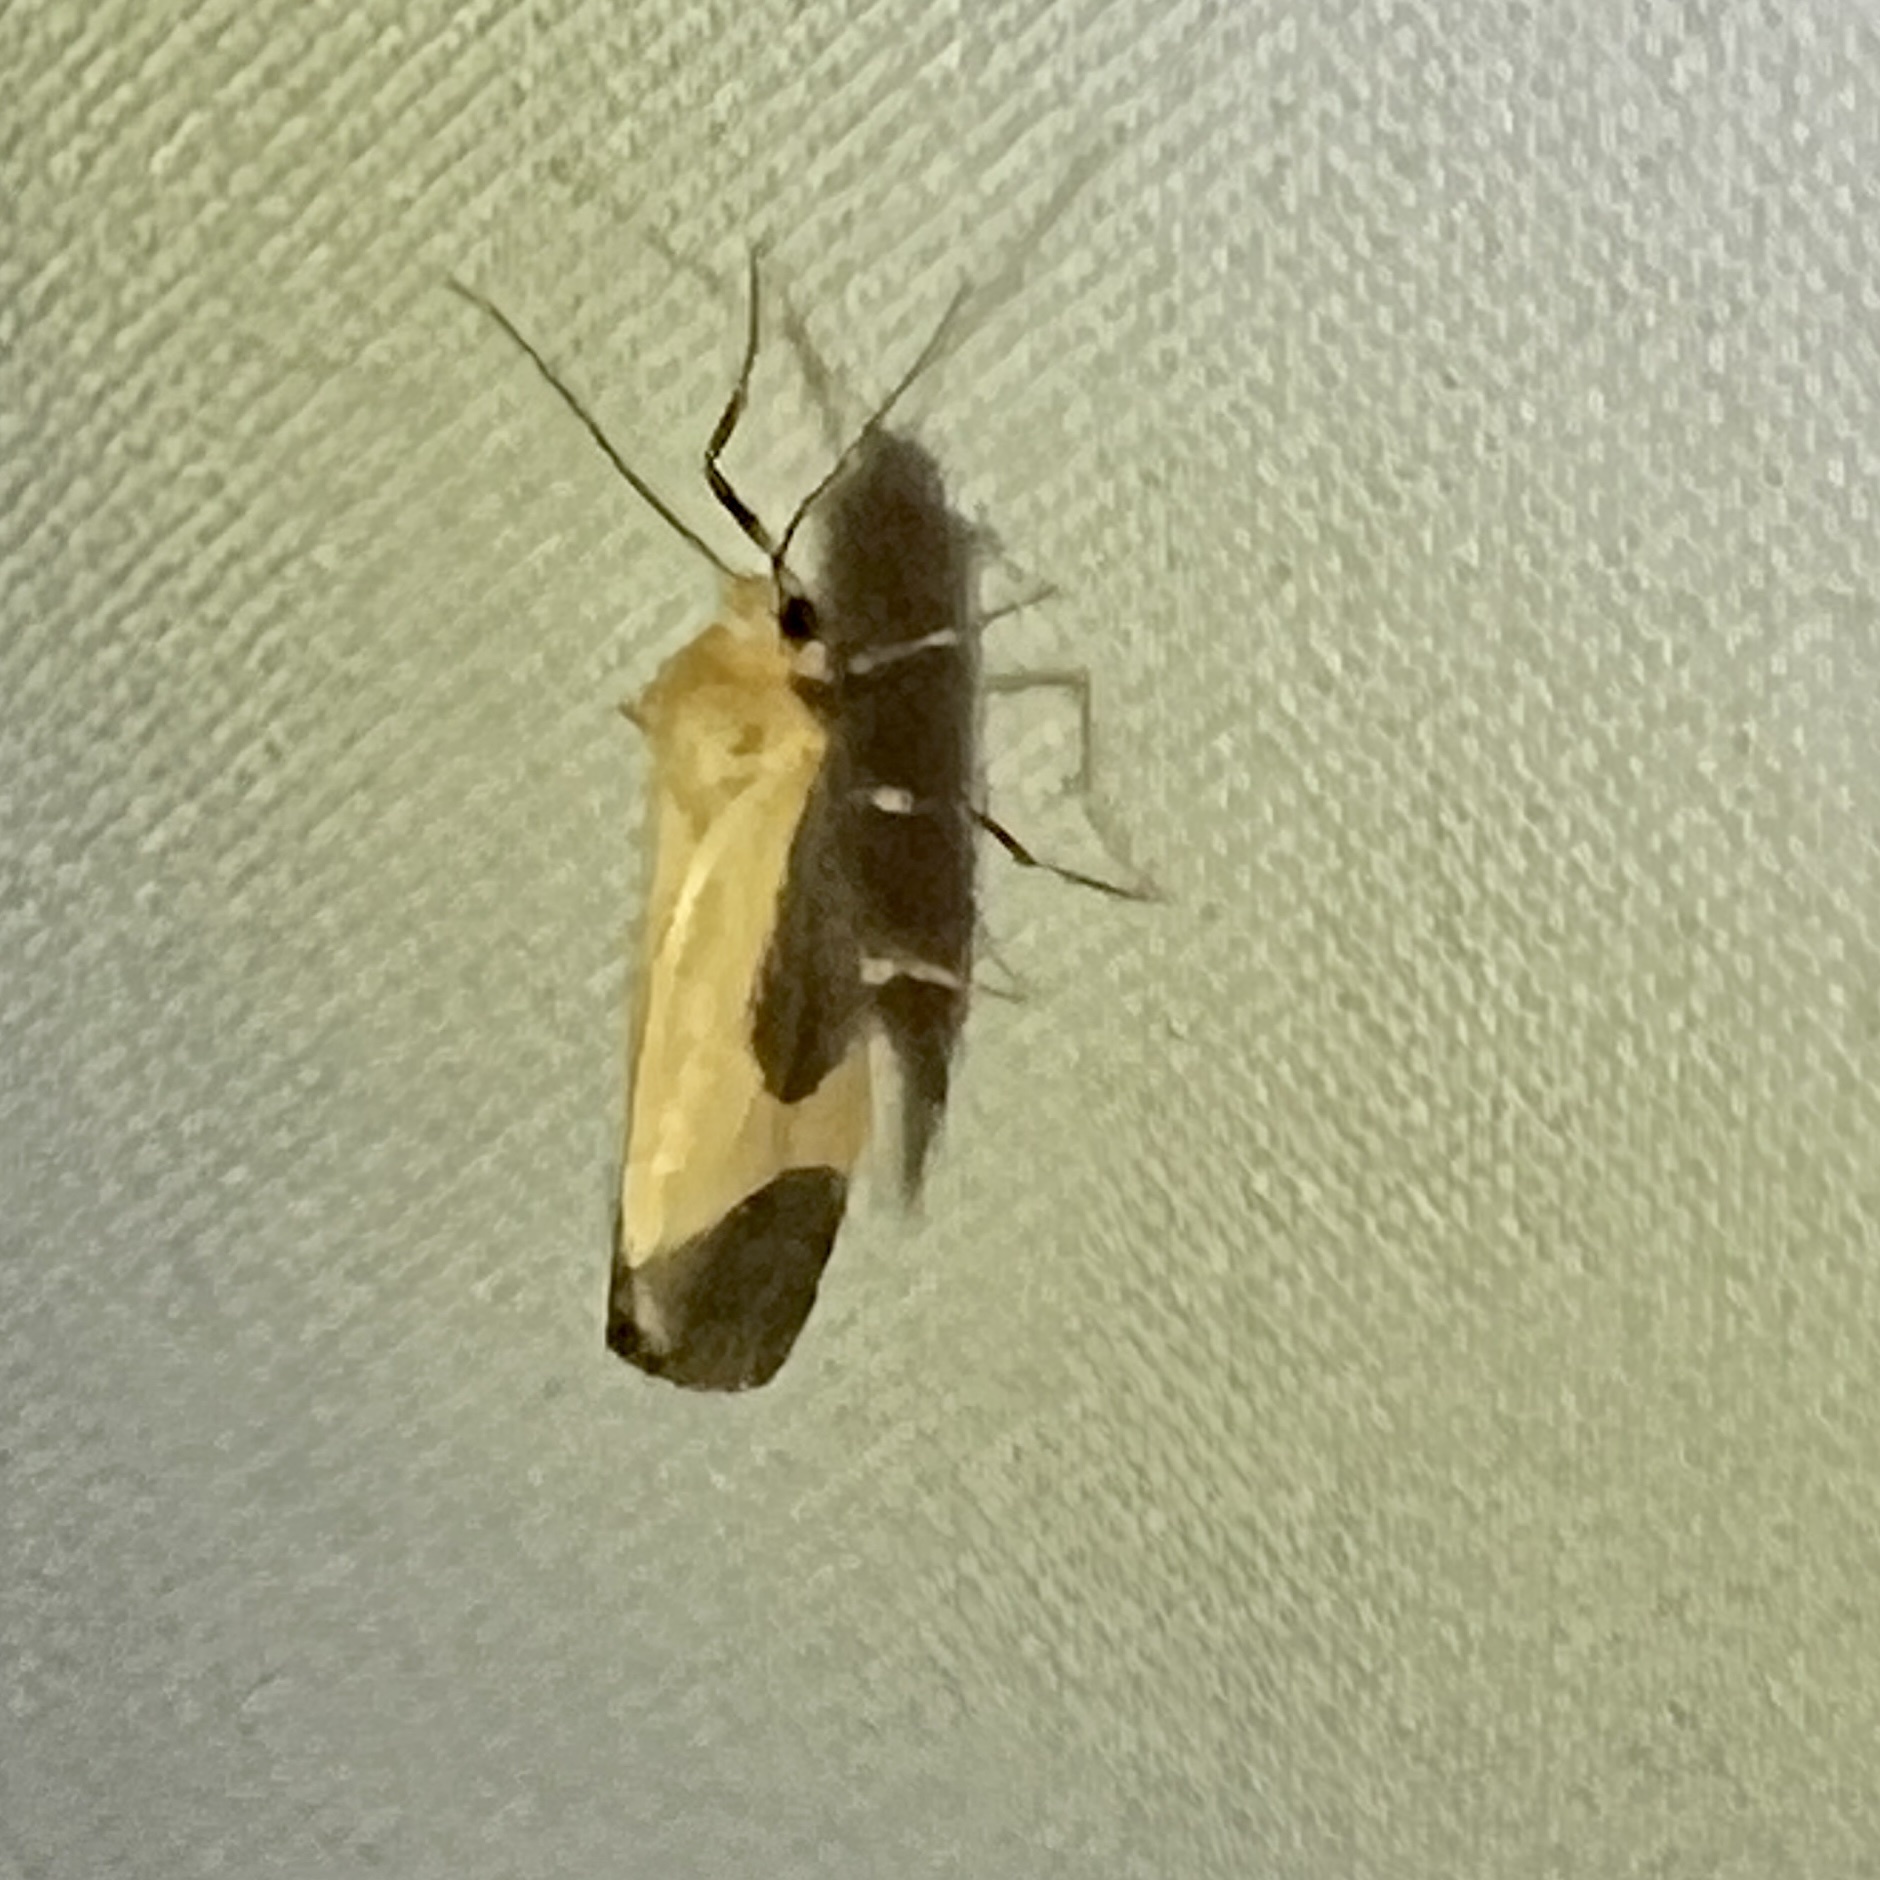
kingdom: Animalia
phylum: Arthropoda
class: Insecta
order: Lepidoptera
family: Erebidae
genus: Cisthene
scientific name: Cisthene picta
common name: Pictured lichen moth
